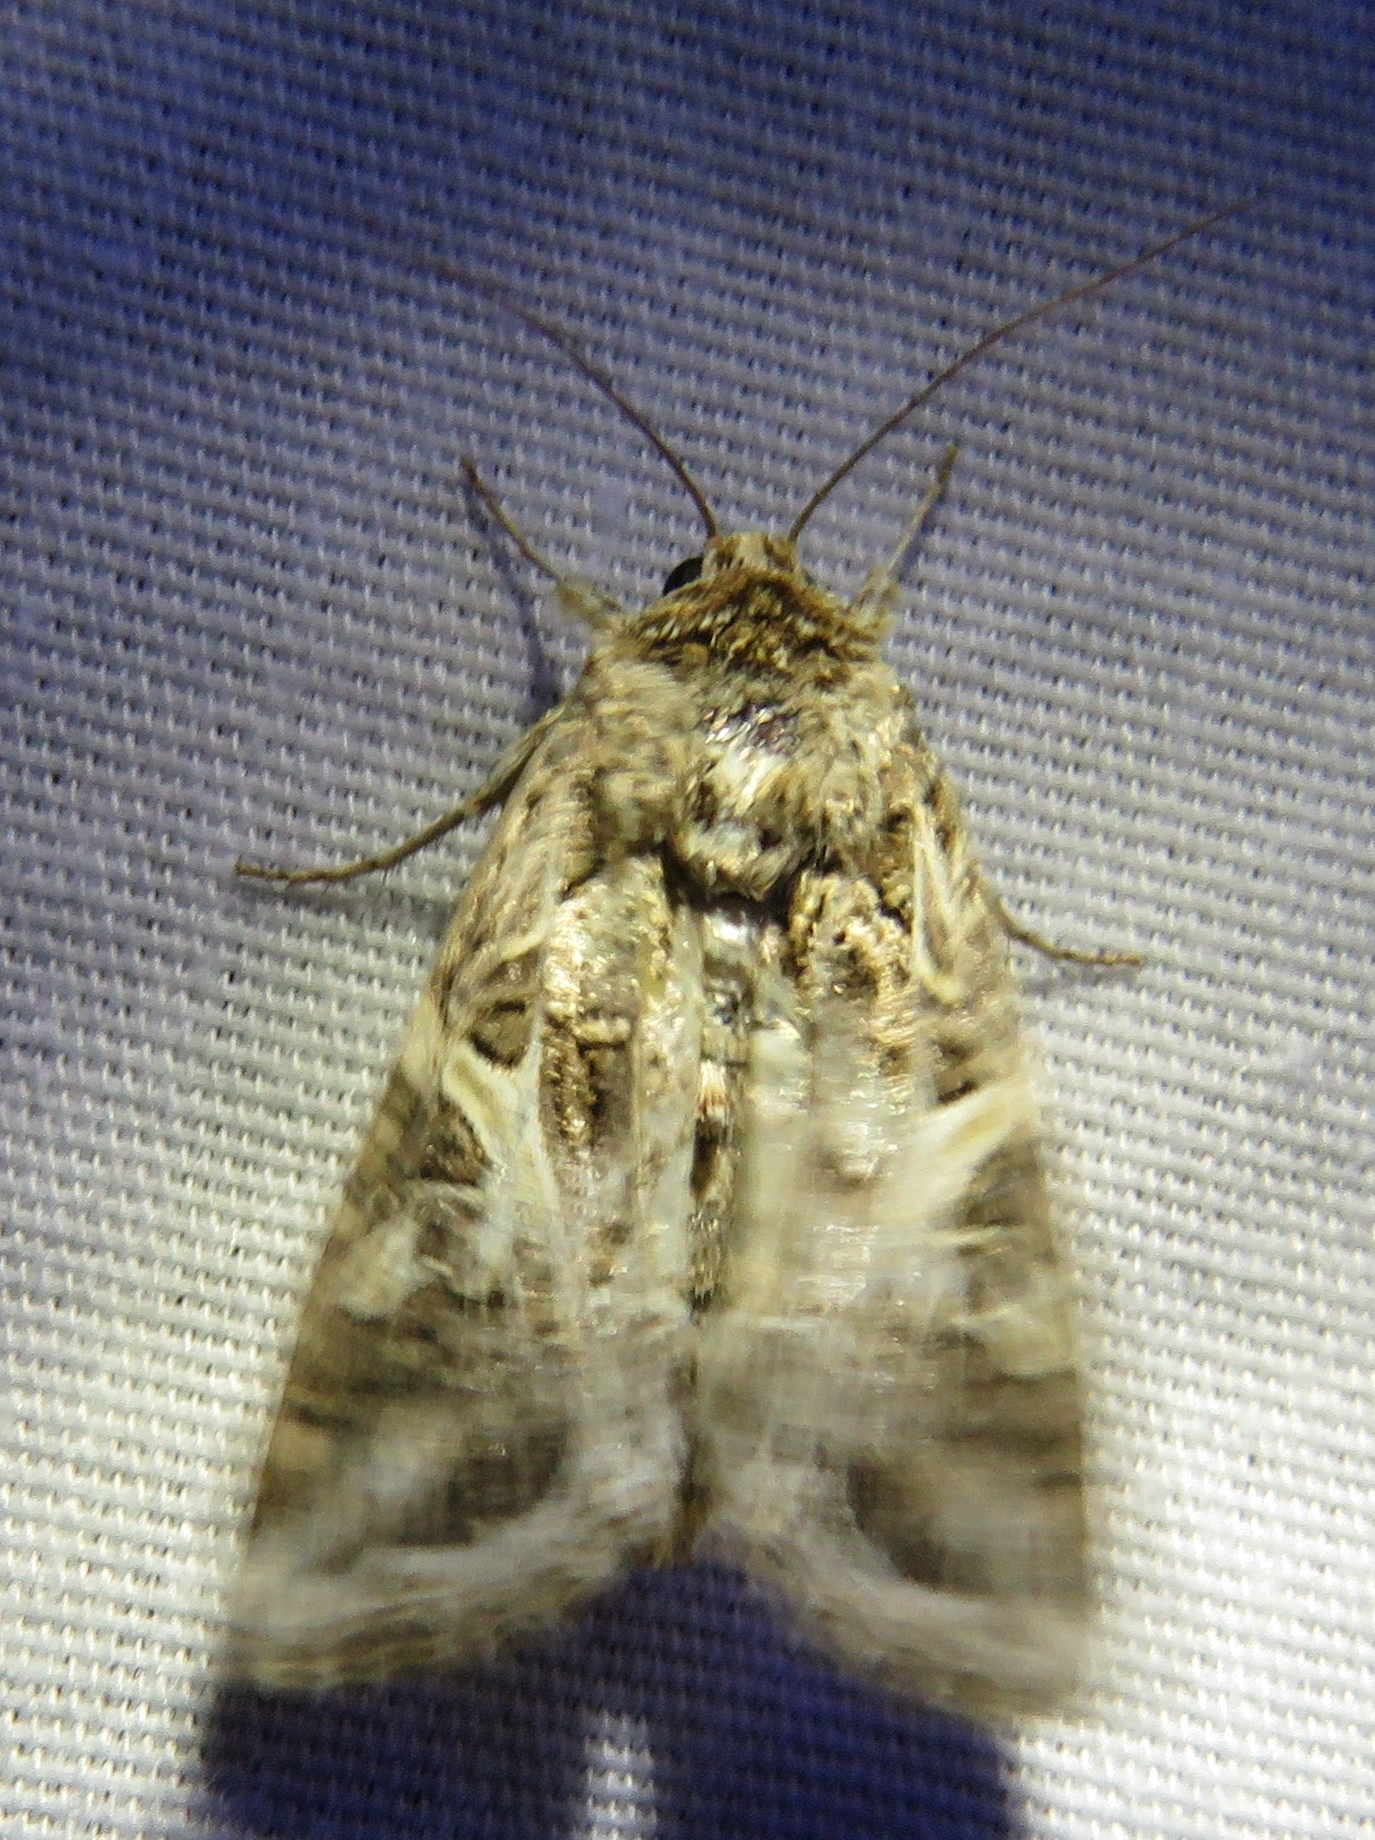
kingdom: Animalia
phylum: Arthropoda
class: Insecta
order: Lepidoptera
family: Noctuidae
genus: Spodoptera
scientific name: Spodoptera ornithogalli
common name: Yellow-striped armyworm
